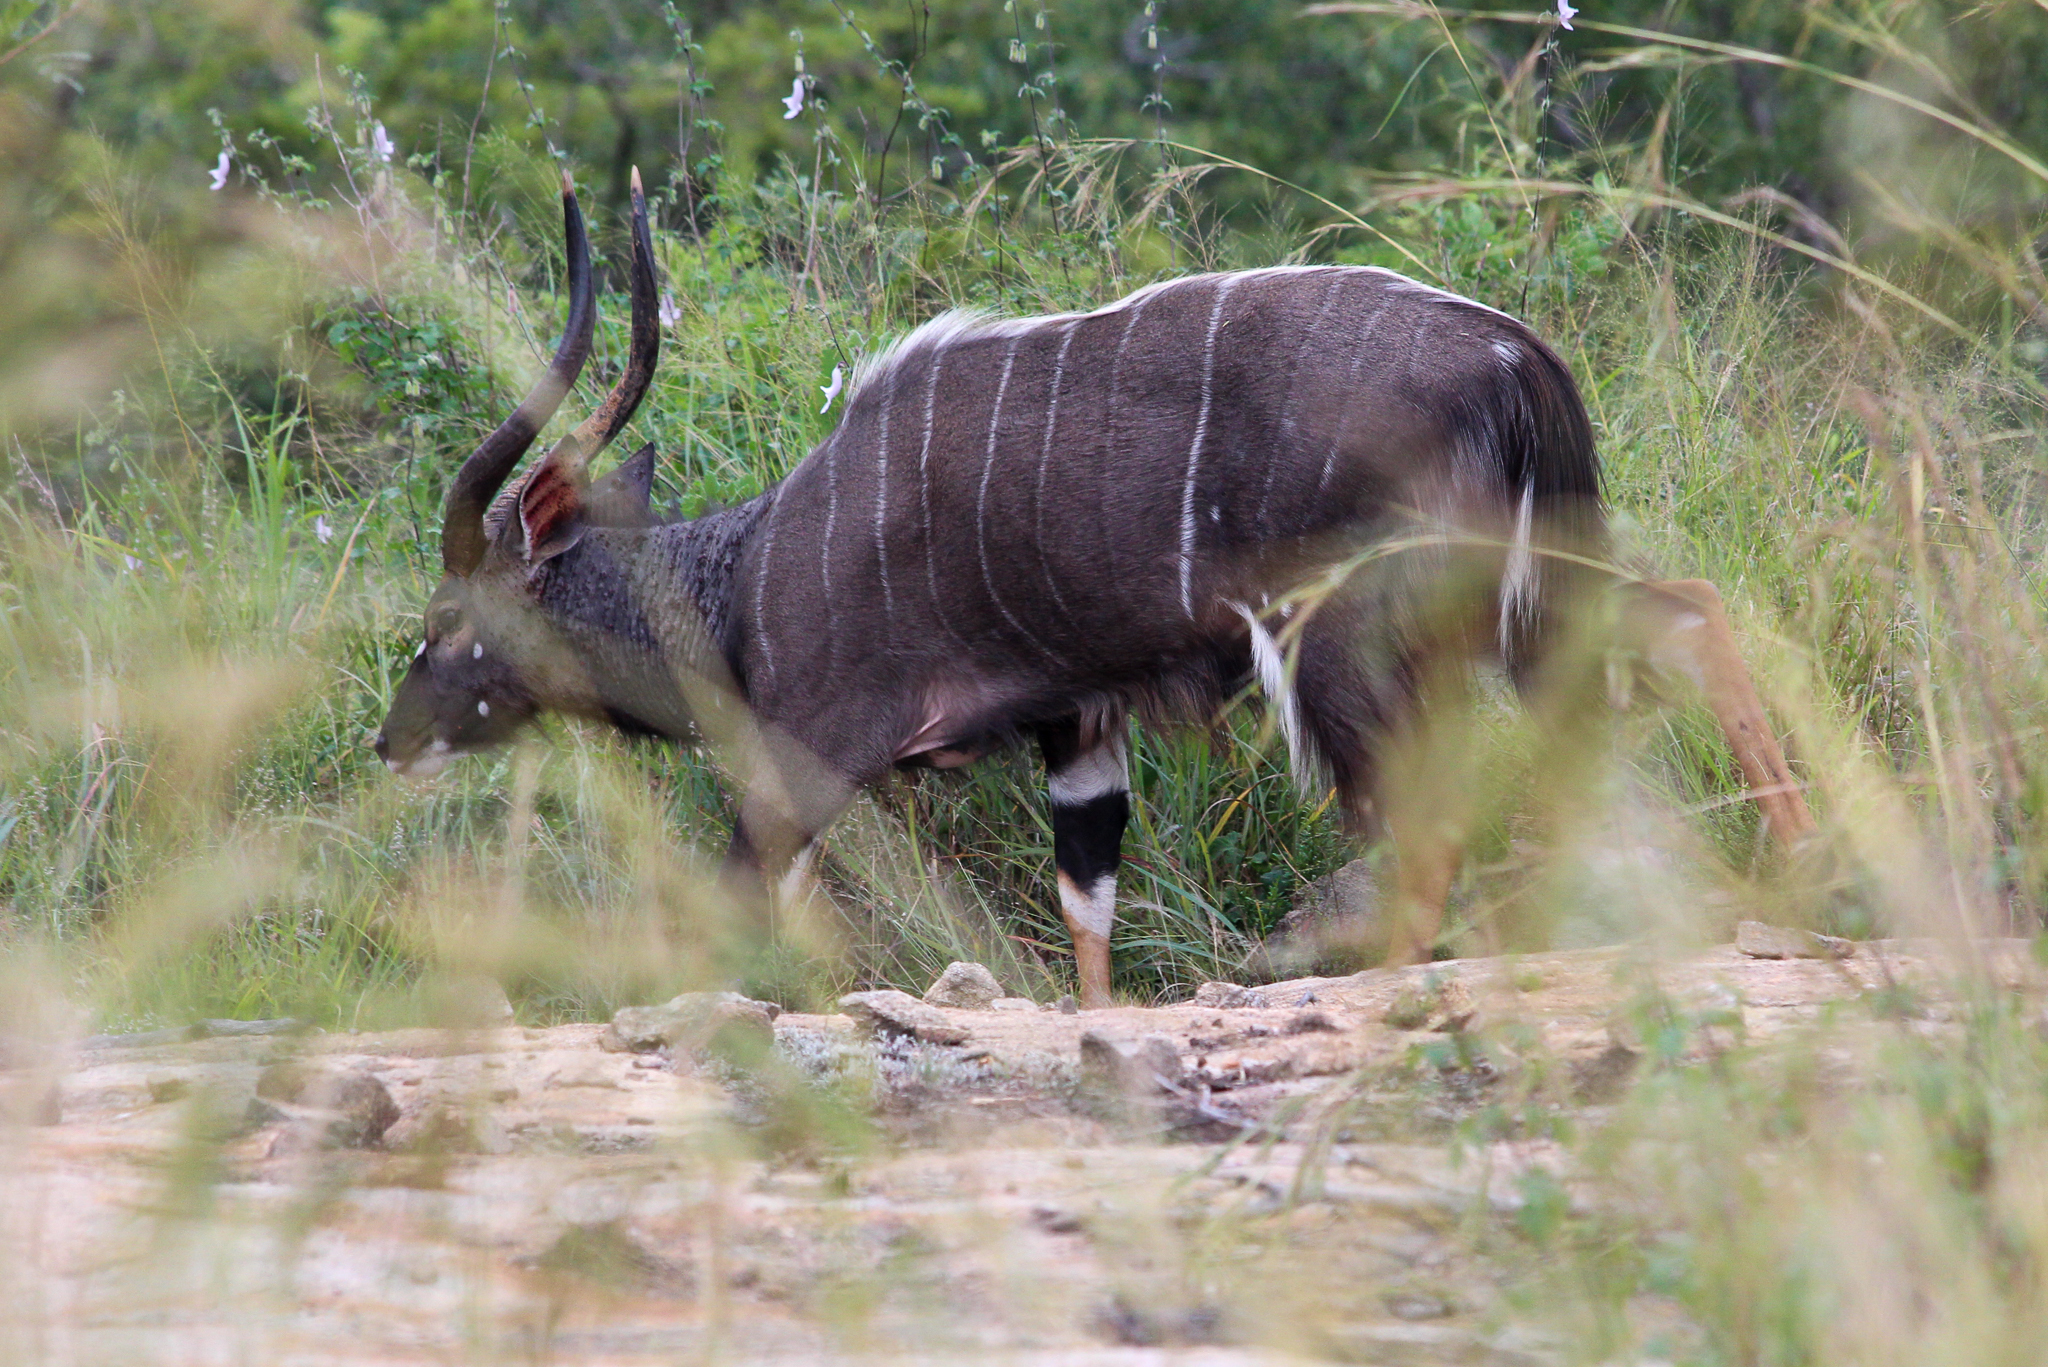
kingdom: Animalia
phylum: Chordata
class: Mammalia
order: Artiodactyla
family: Bovidae
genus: Tragelaphus
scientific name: Tragelaphus angasii
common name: Nyala
